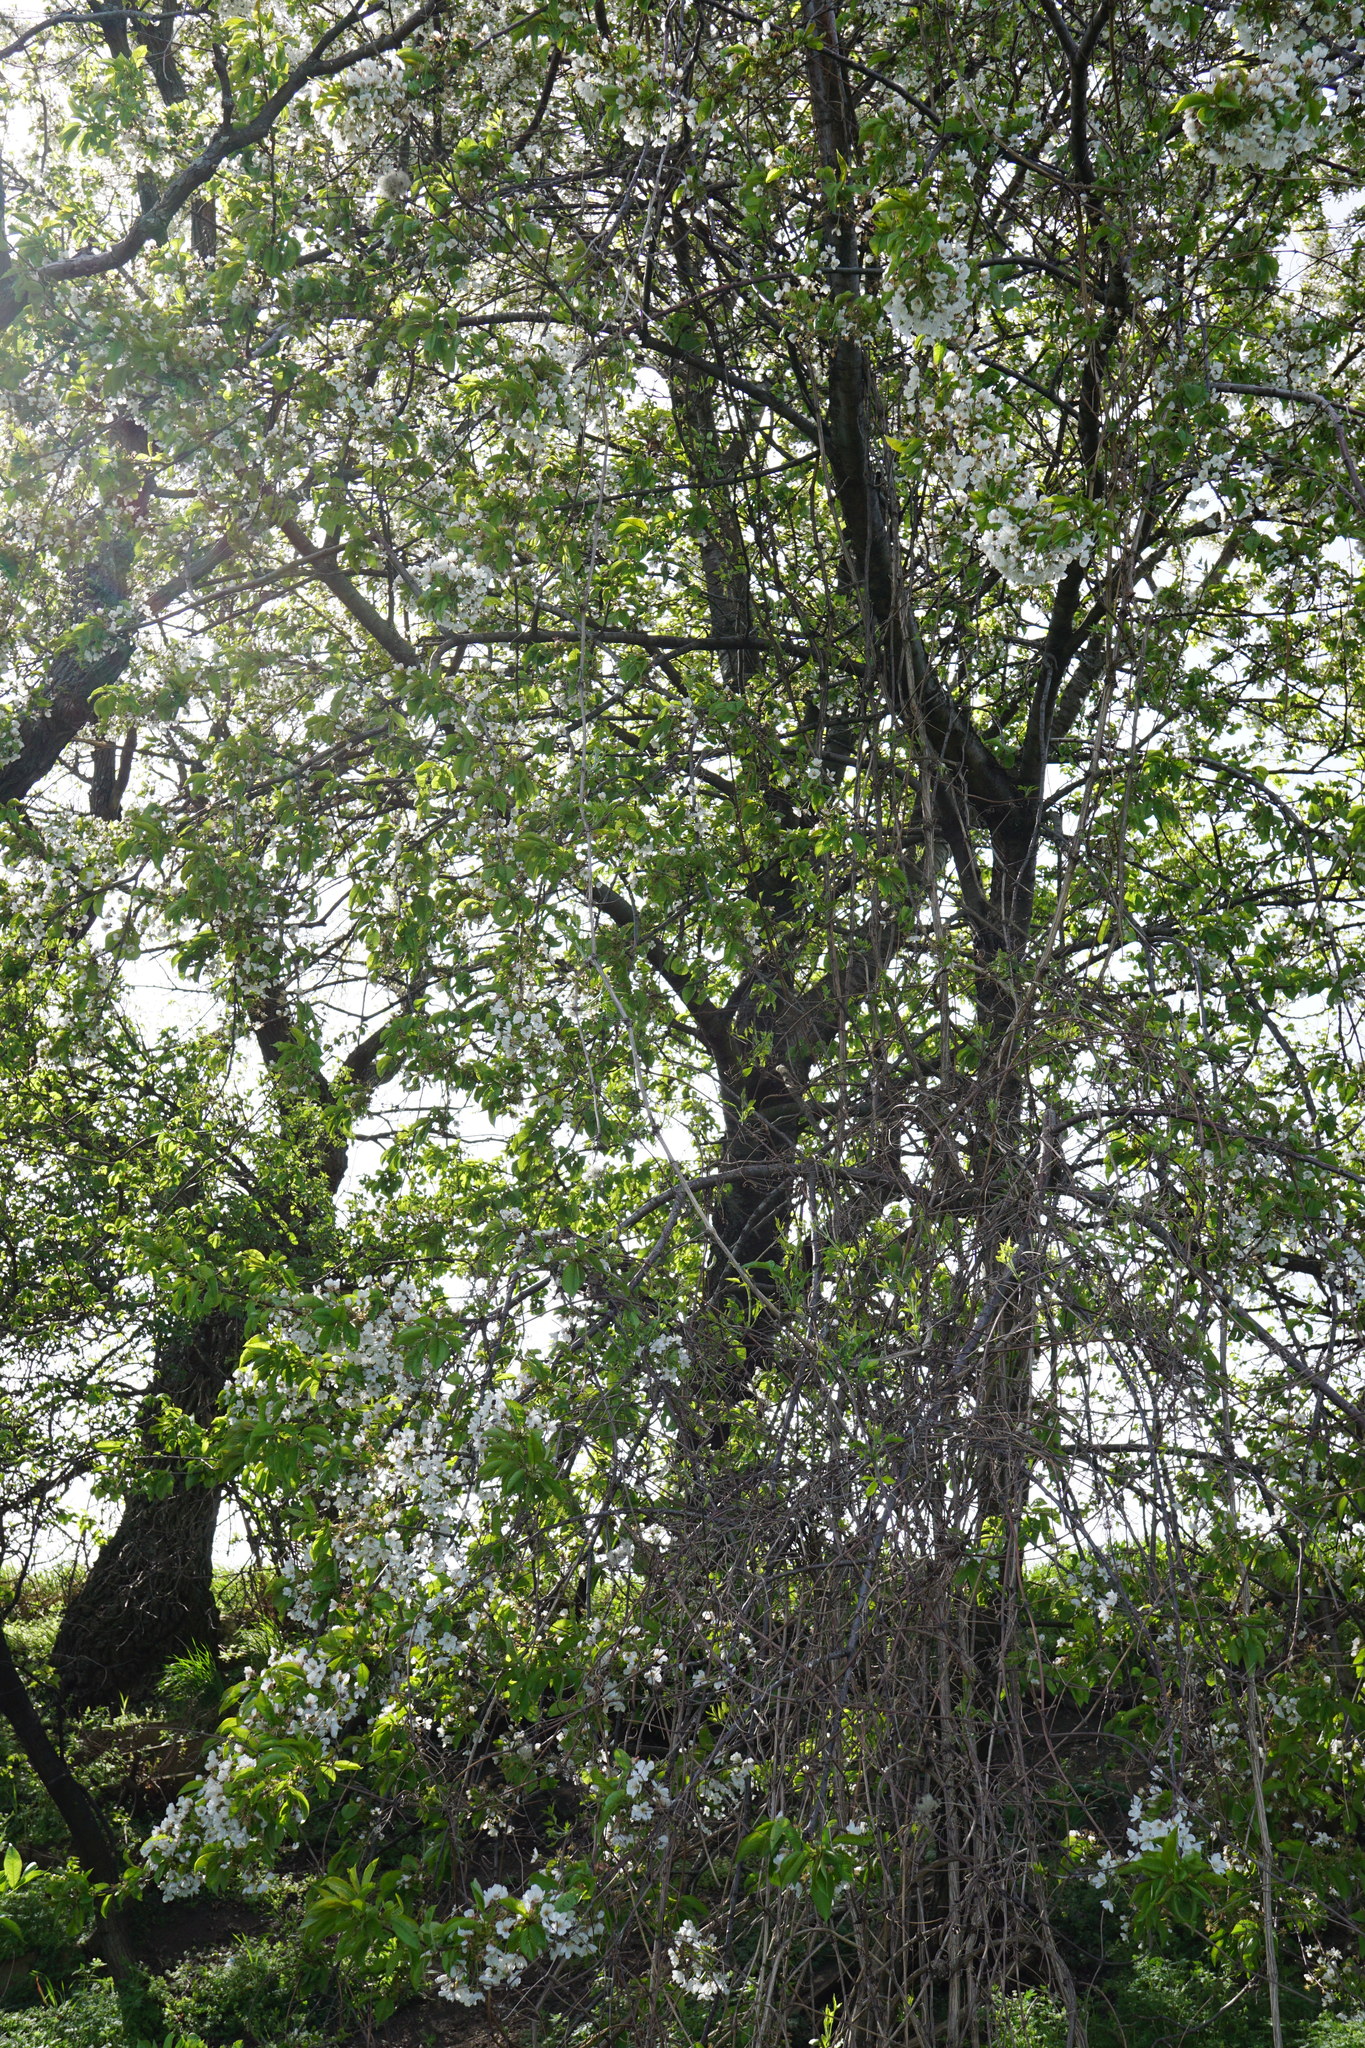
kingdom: Plantae
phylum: Tracheophyta
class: Magnoliopsida
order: Rosales
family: Rosaceae
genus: Prunus
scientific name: Prunus avium
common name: Sweet cherry
